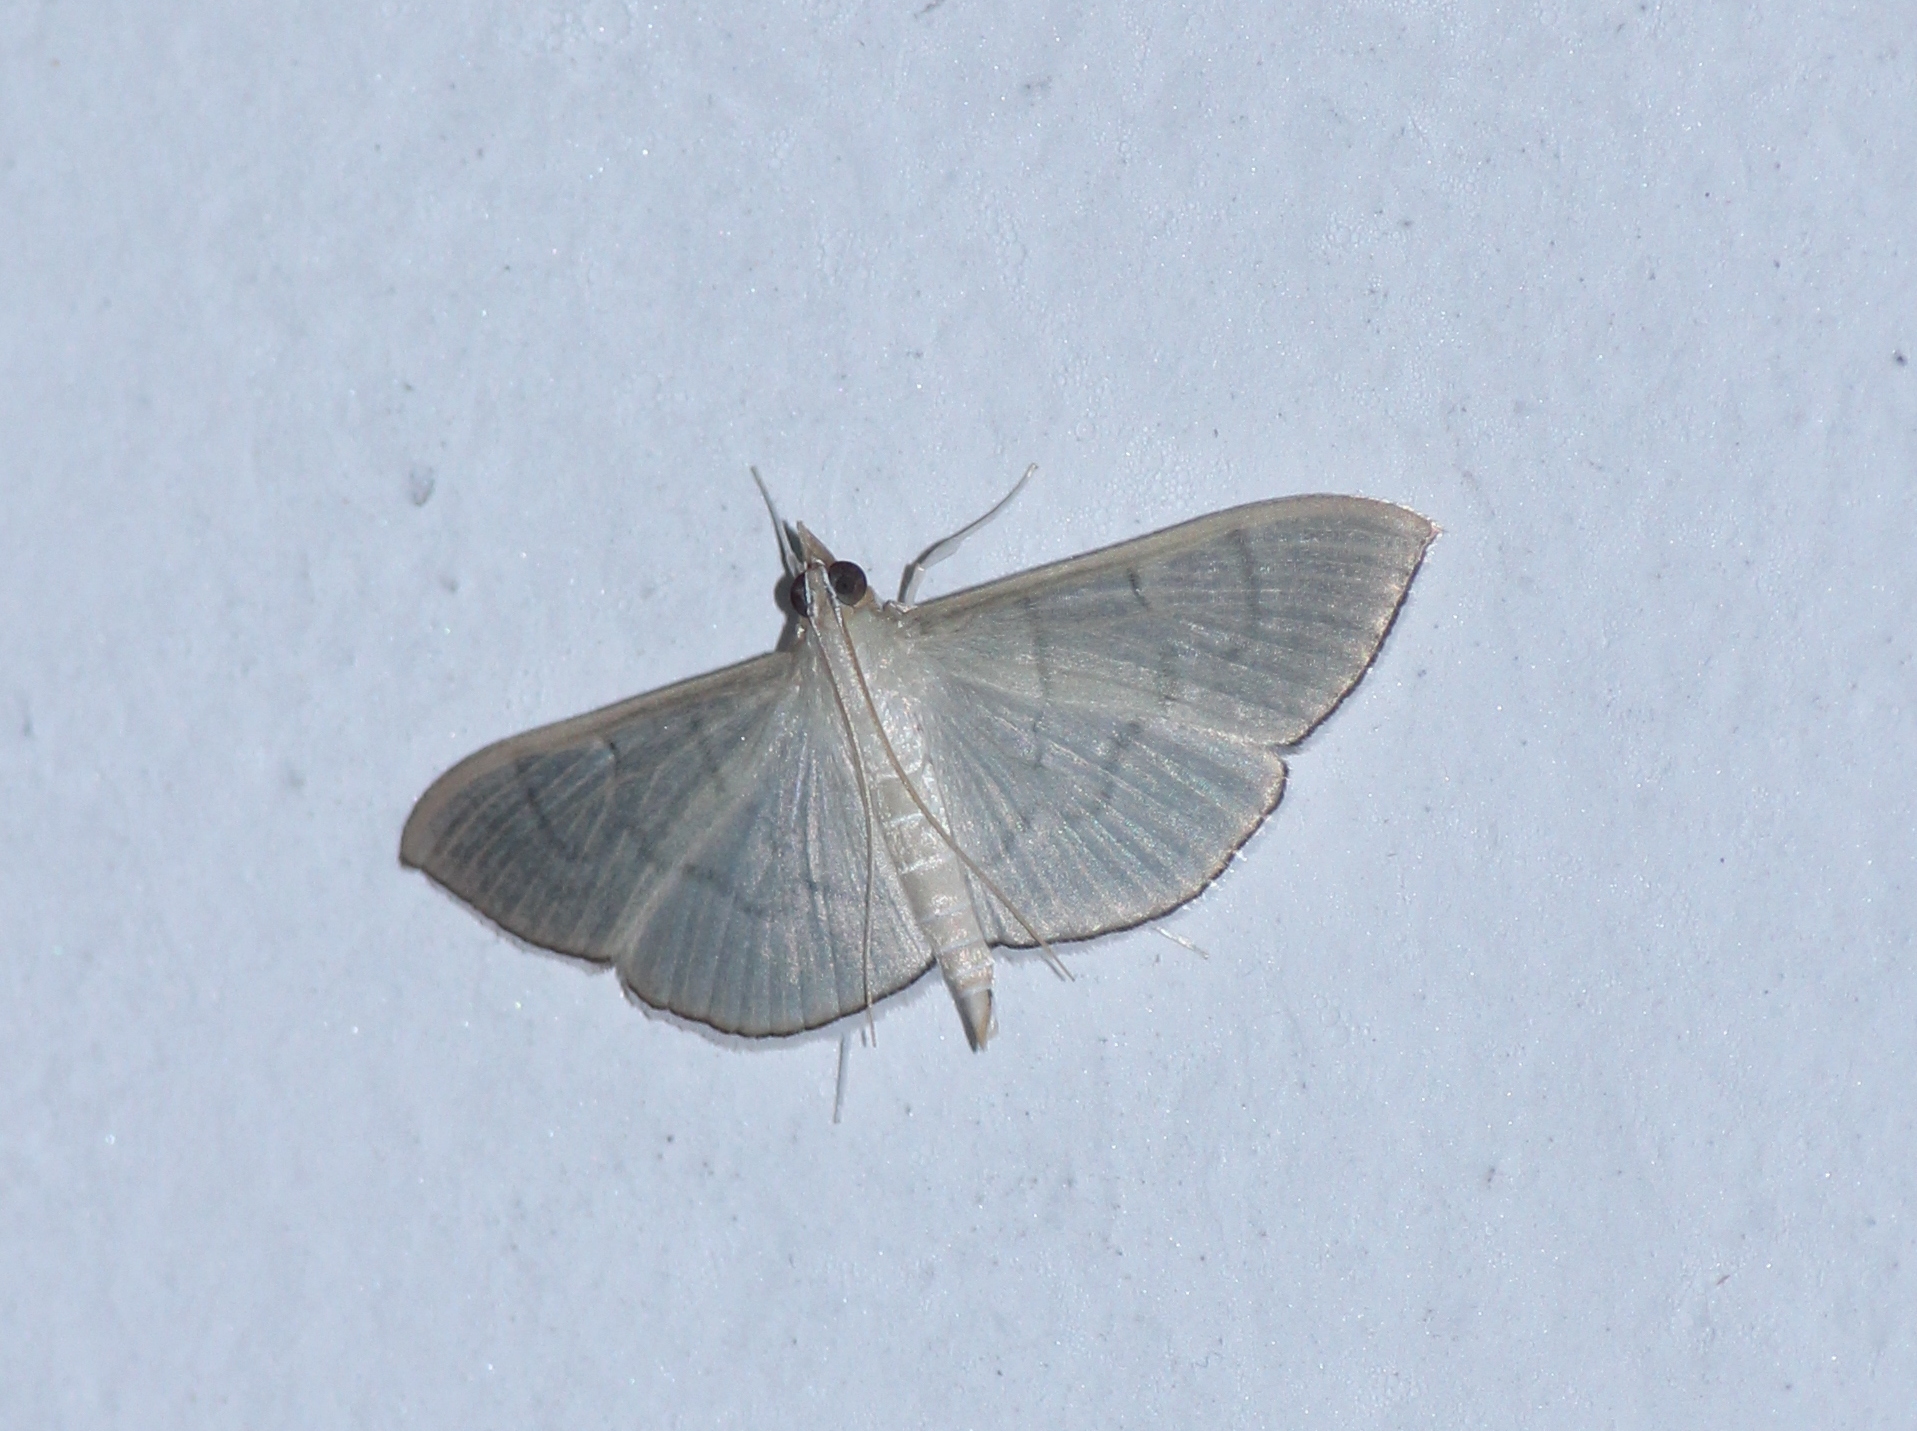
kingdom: Animalia
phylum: Arthropoda
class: Insecta
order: Lepidoptera
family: Crambidae
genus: Lamprophaia
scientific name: Lamprophaia ablactalis
